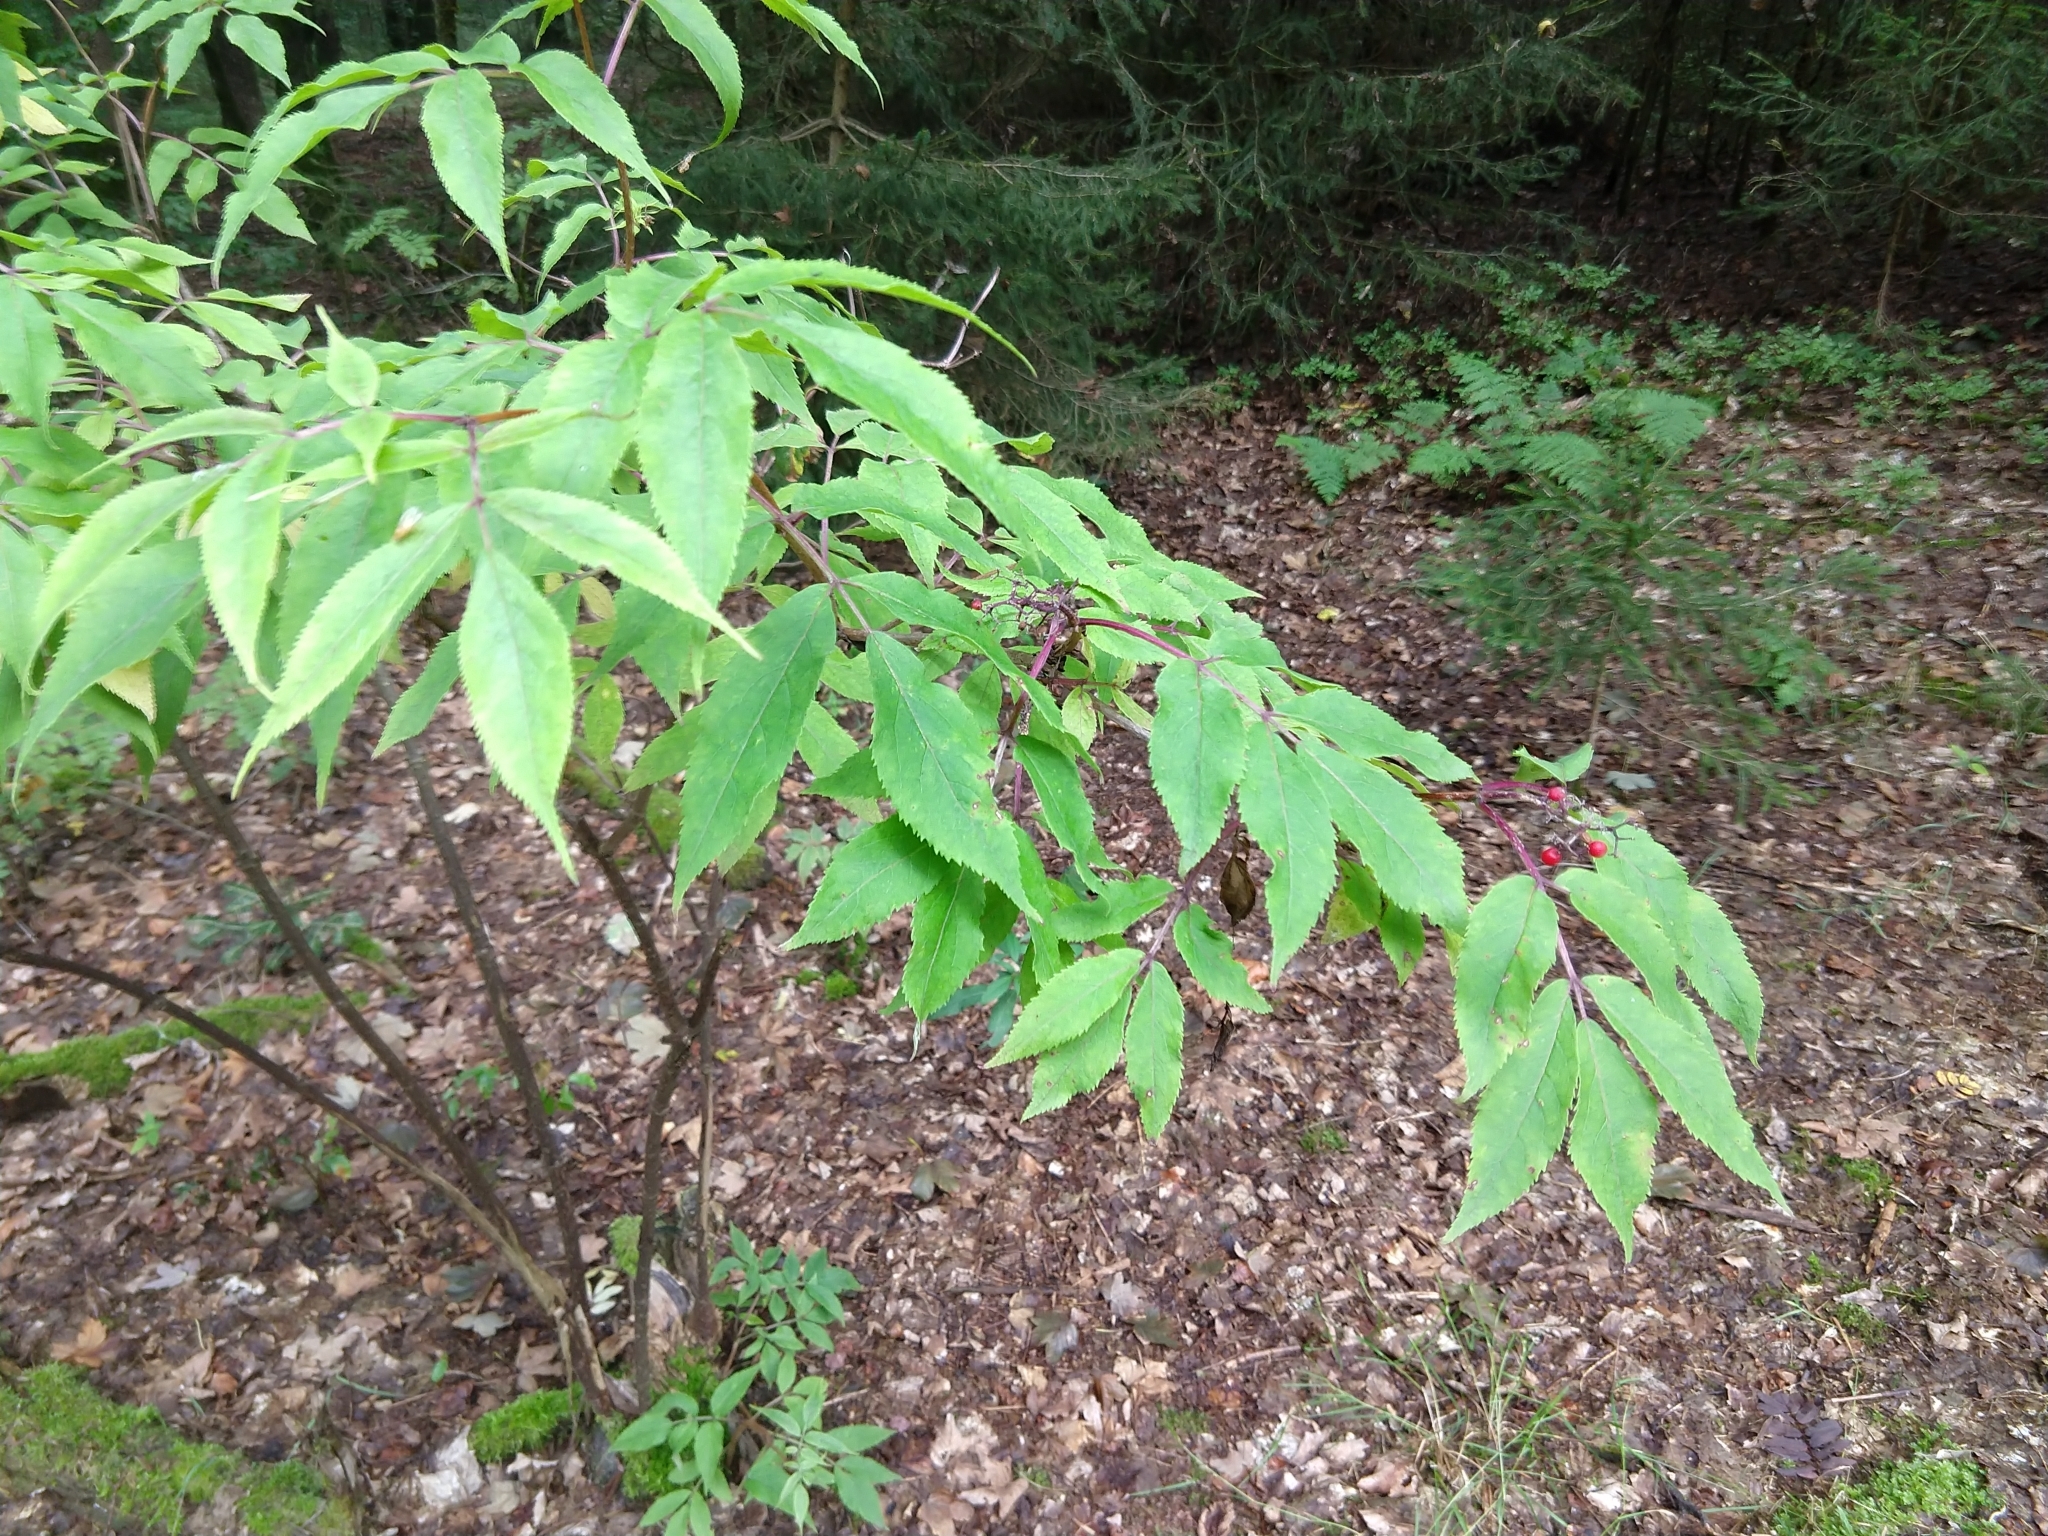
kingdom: Plantae
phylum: Tracheophyta
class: Magnoliopsida
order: Dipsacales
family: Viburnaceae
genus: Sambucus
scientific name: Sambucus racemosa
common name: Red-berried elder
